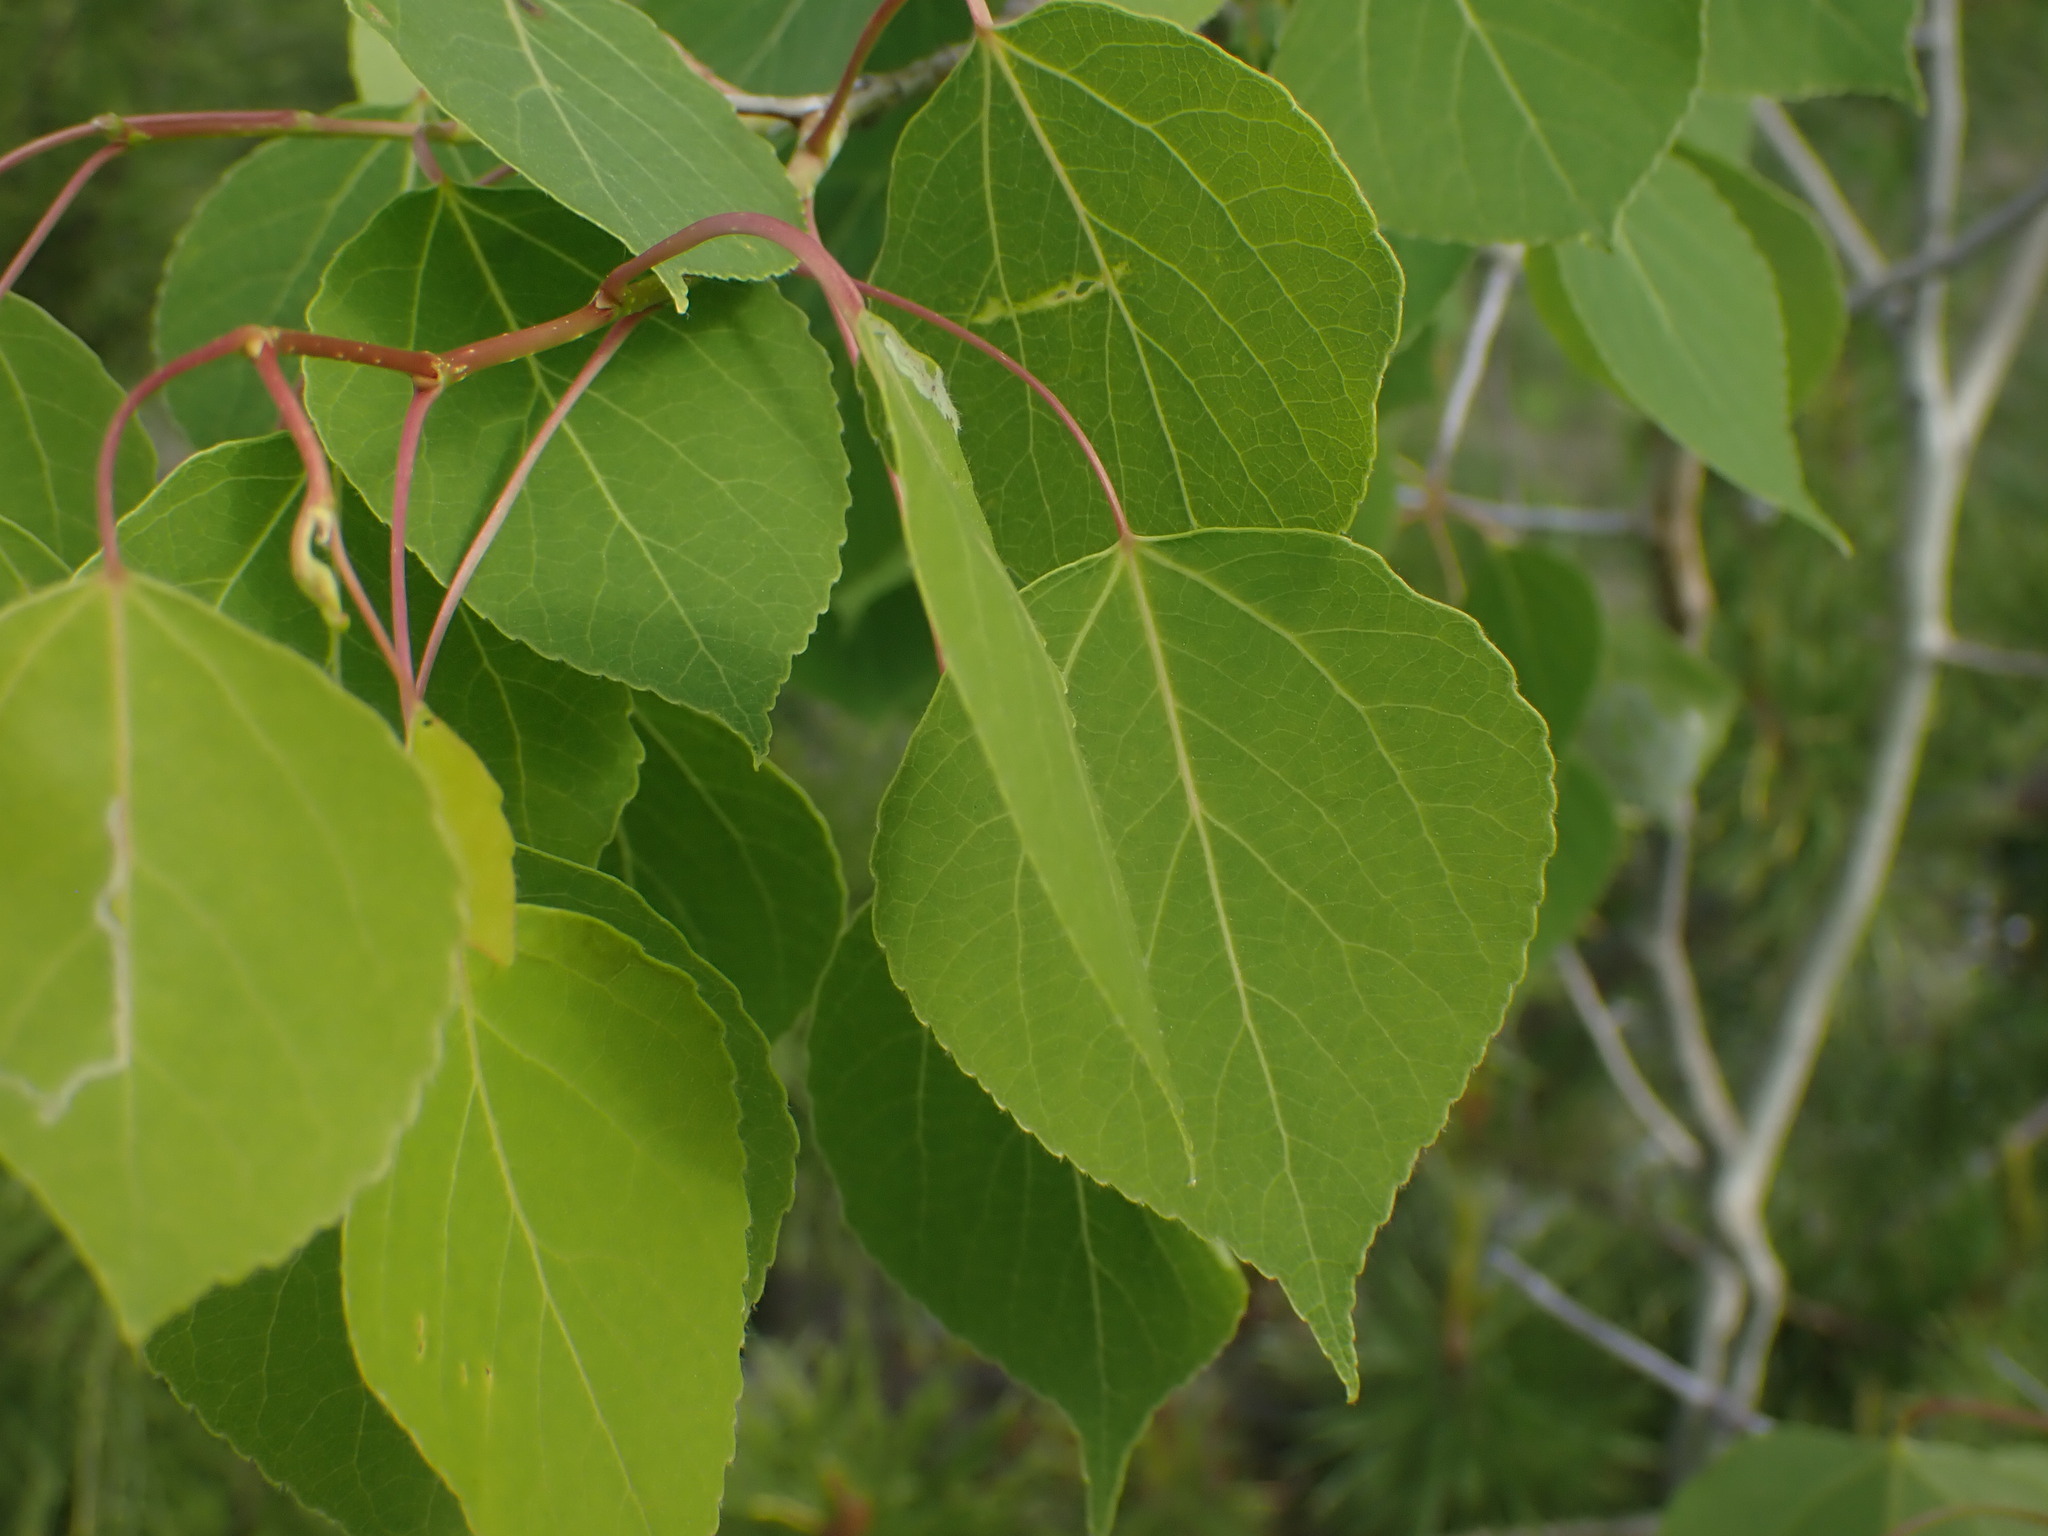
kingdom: Plantae
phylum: Tracheophyta
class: Magnoliopsida
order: Malpighiales
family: Salicaceae
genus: Populus
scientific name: Populus tremuloides
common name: Quaking aspen
